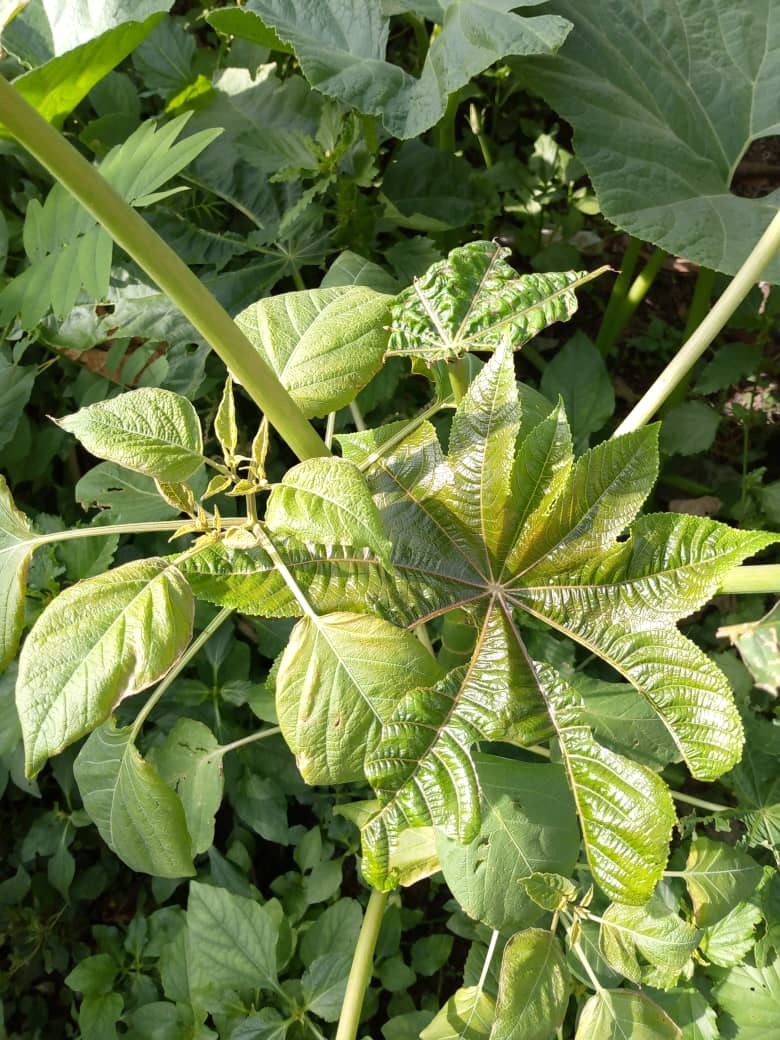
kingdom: Plantae
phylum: Tracheophyta
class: Magnoliopsida
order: Malpighiales
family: Euphorbiaceae
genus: Ricinus
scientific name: Ricinus communis
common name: Castor-oil-plant
